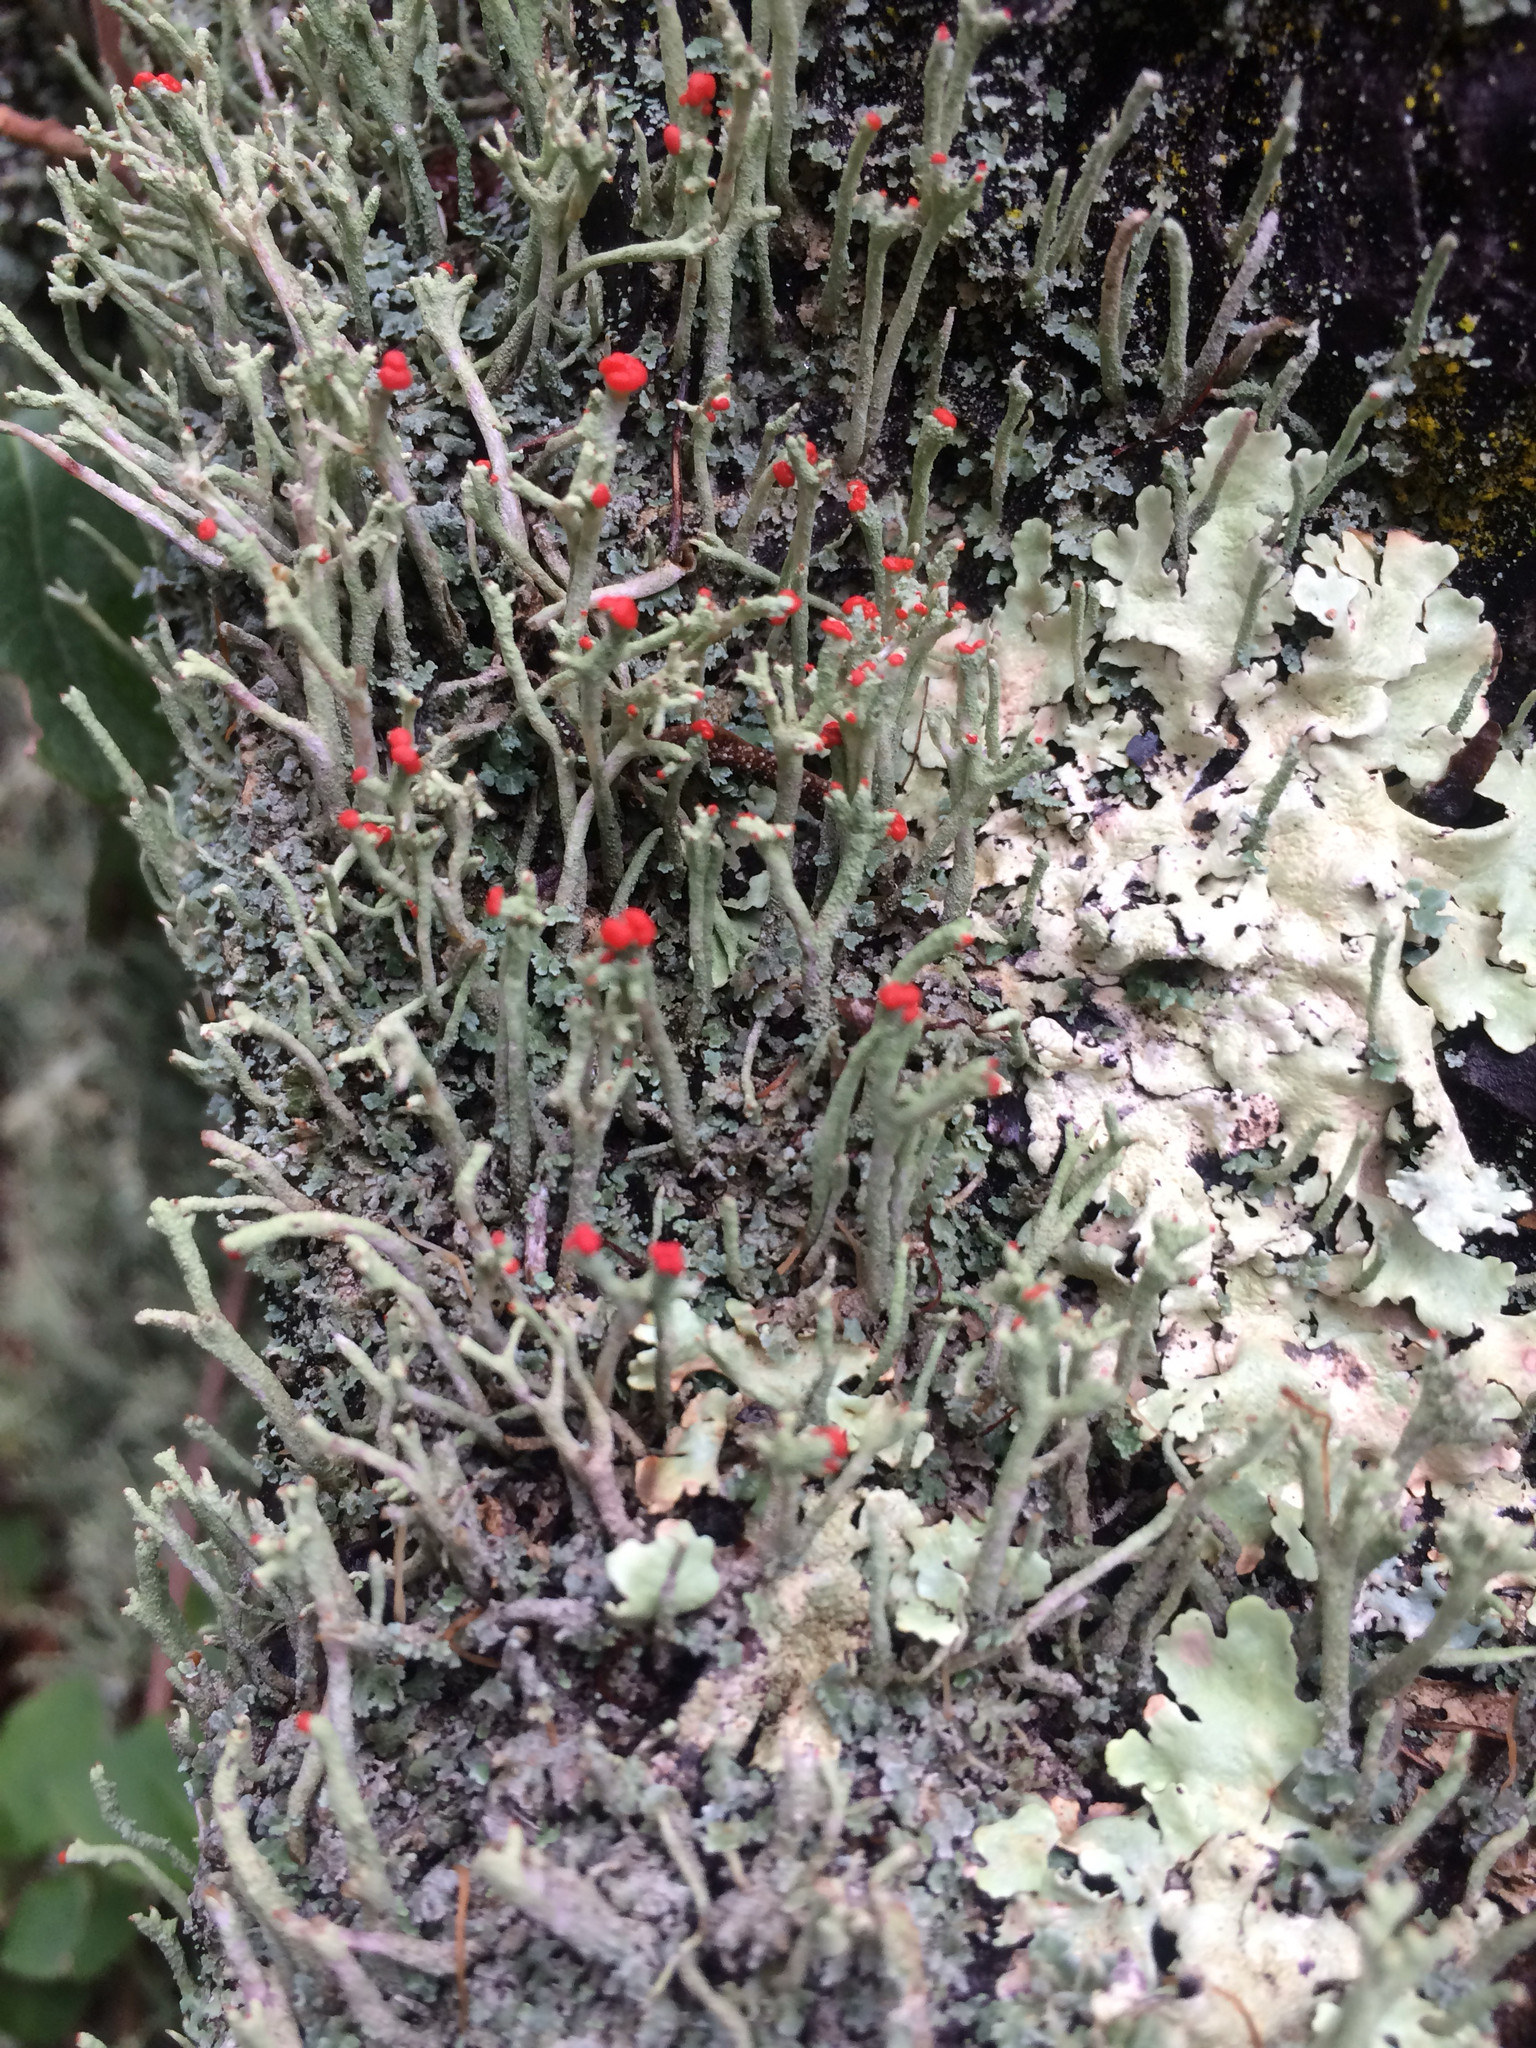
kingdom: Fungi
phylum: Ascomycota
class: Lecanoromycetes
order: Lecanorales
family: Cladoniaceae
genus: Cladonia
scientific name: Cladonia macilenta
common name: Lipstick powderhorn
